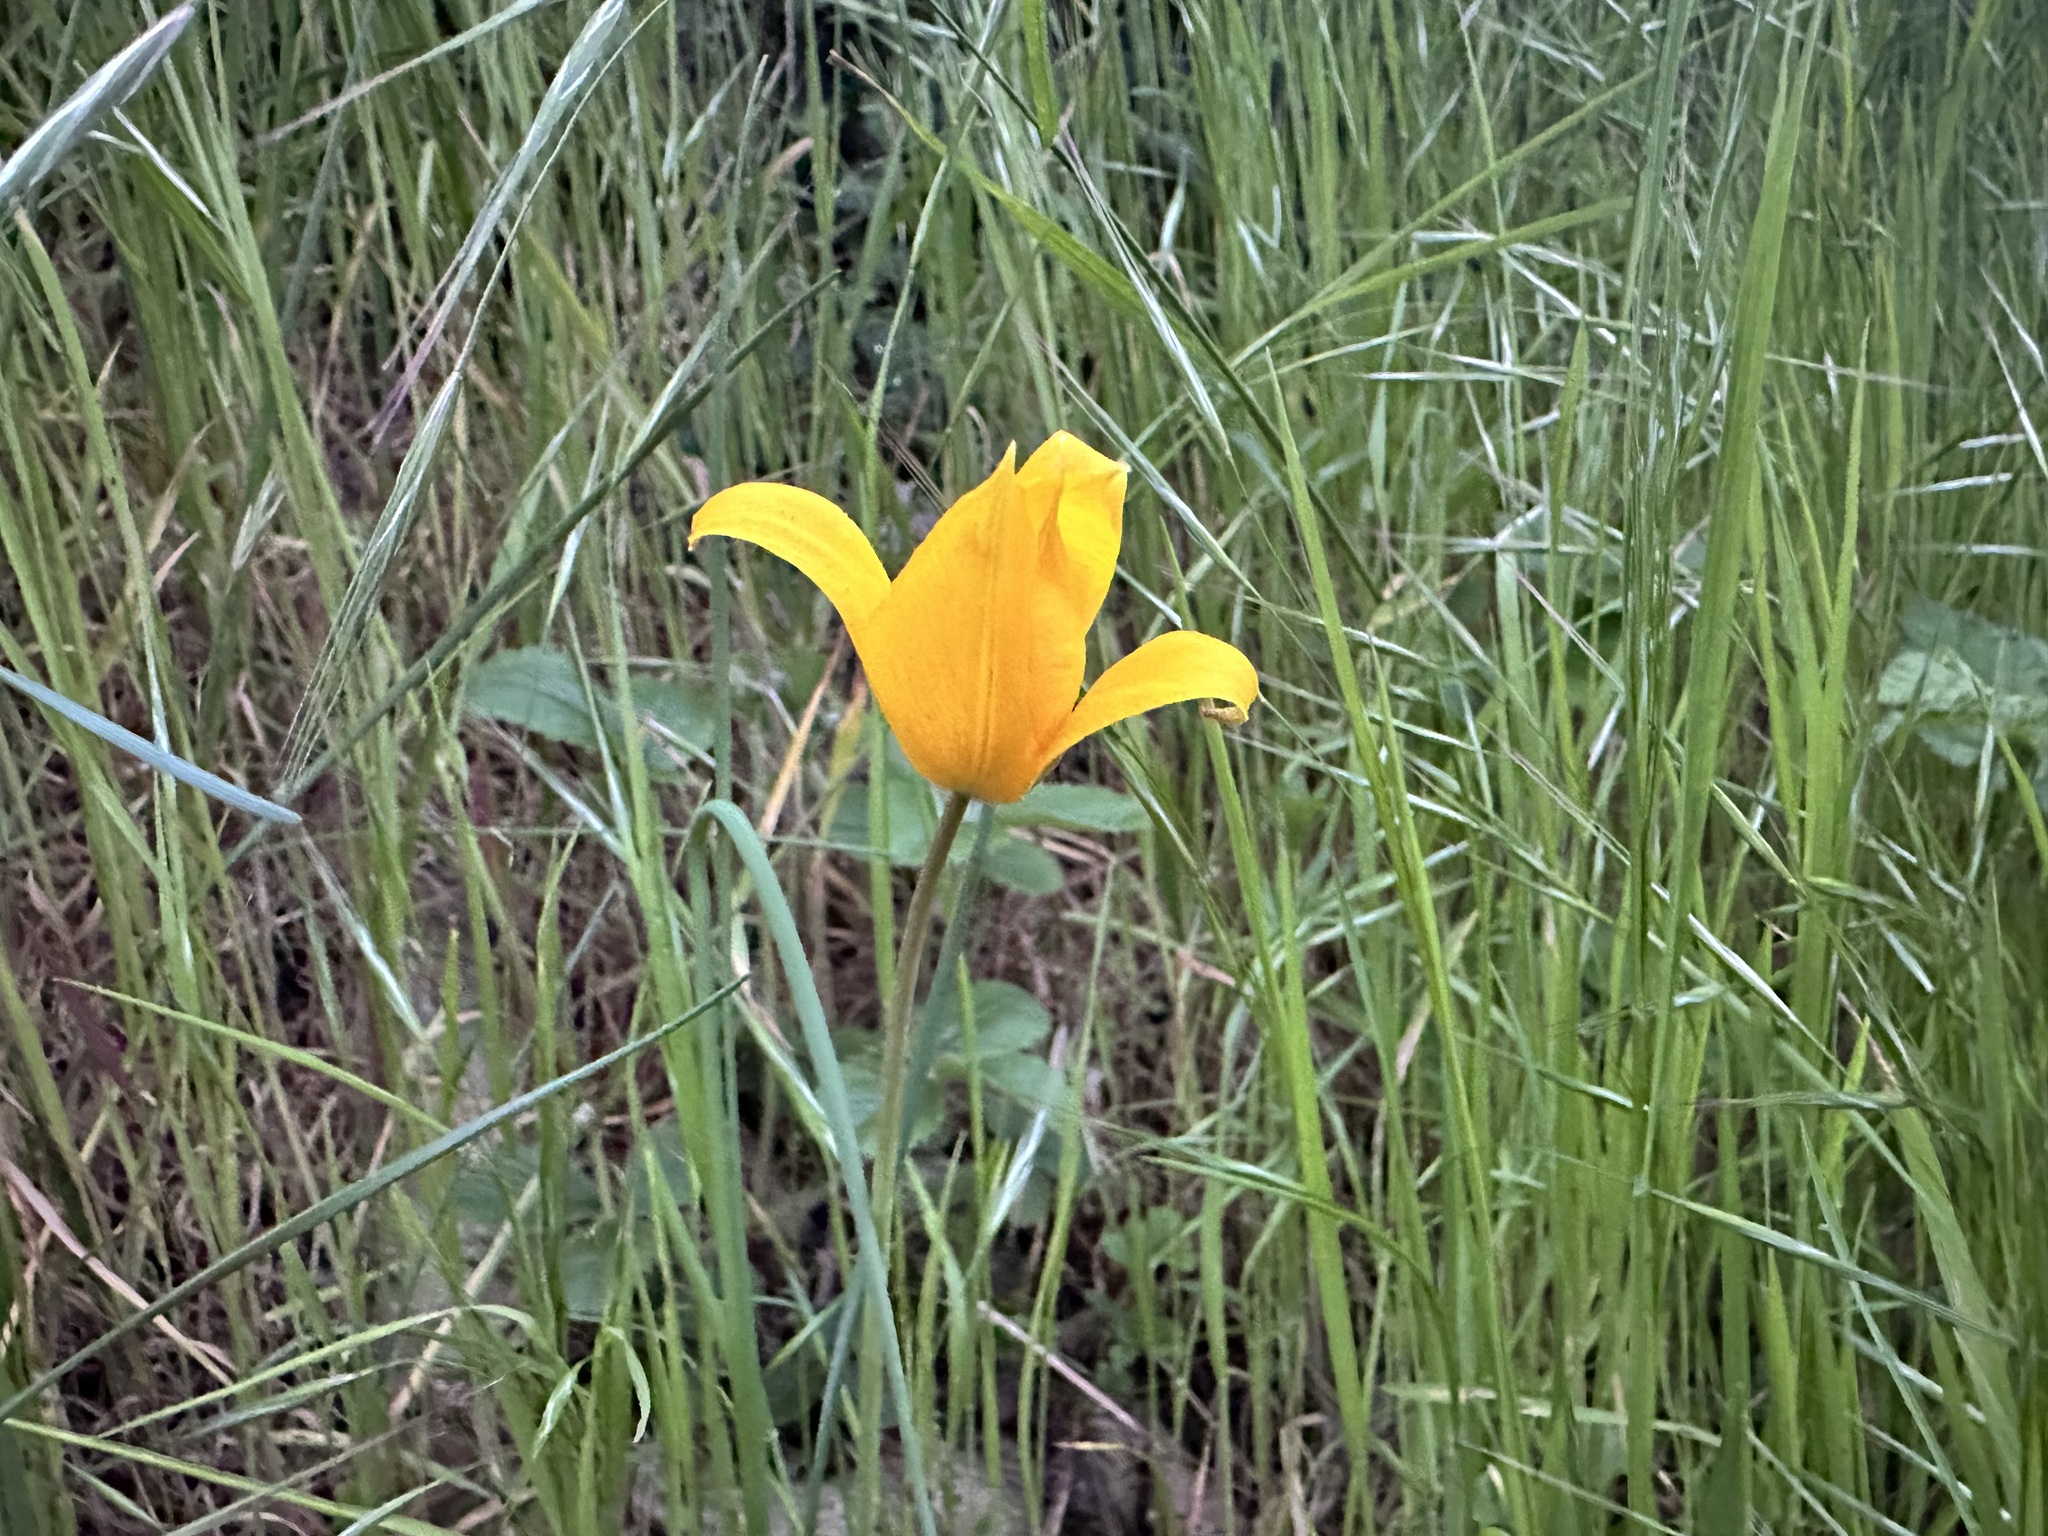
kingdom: Plantae
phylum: Tracheophyta
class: Liliopsida
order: Liliales
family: Liliaceae
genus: Tulipa
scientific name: Tulipa sylvestris
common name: Wild tulip
